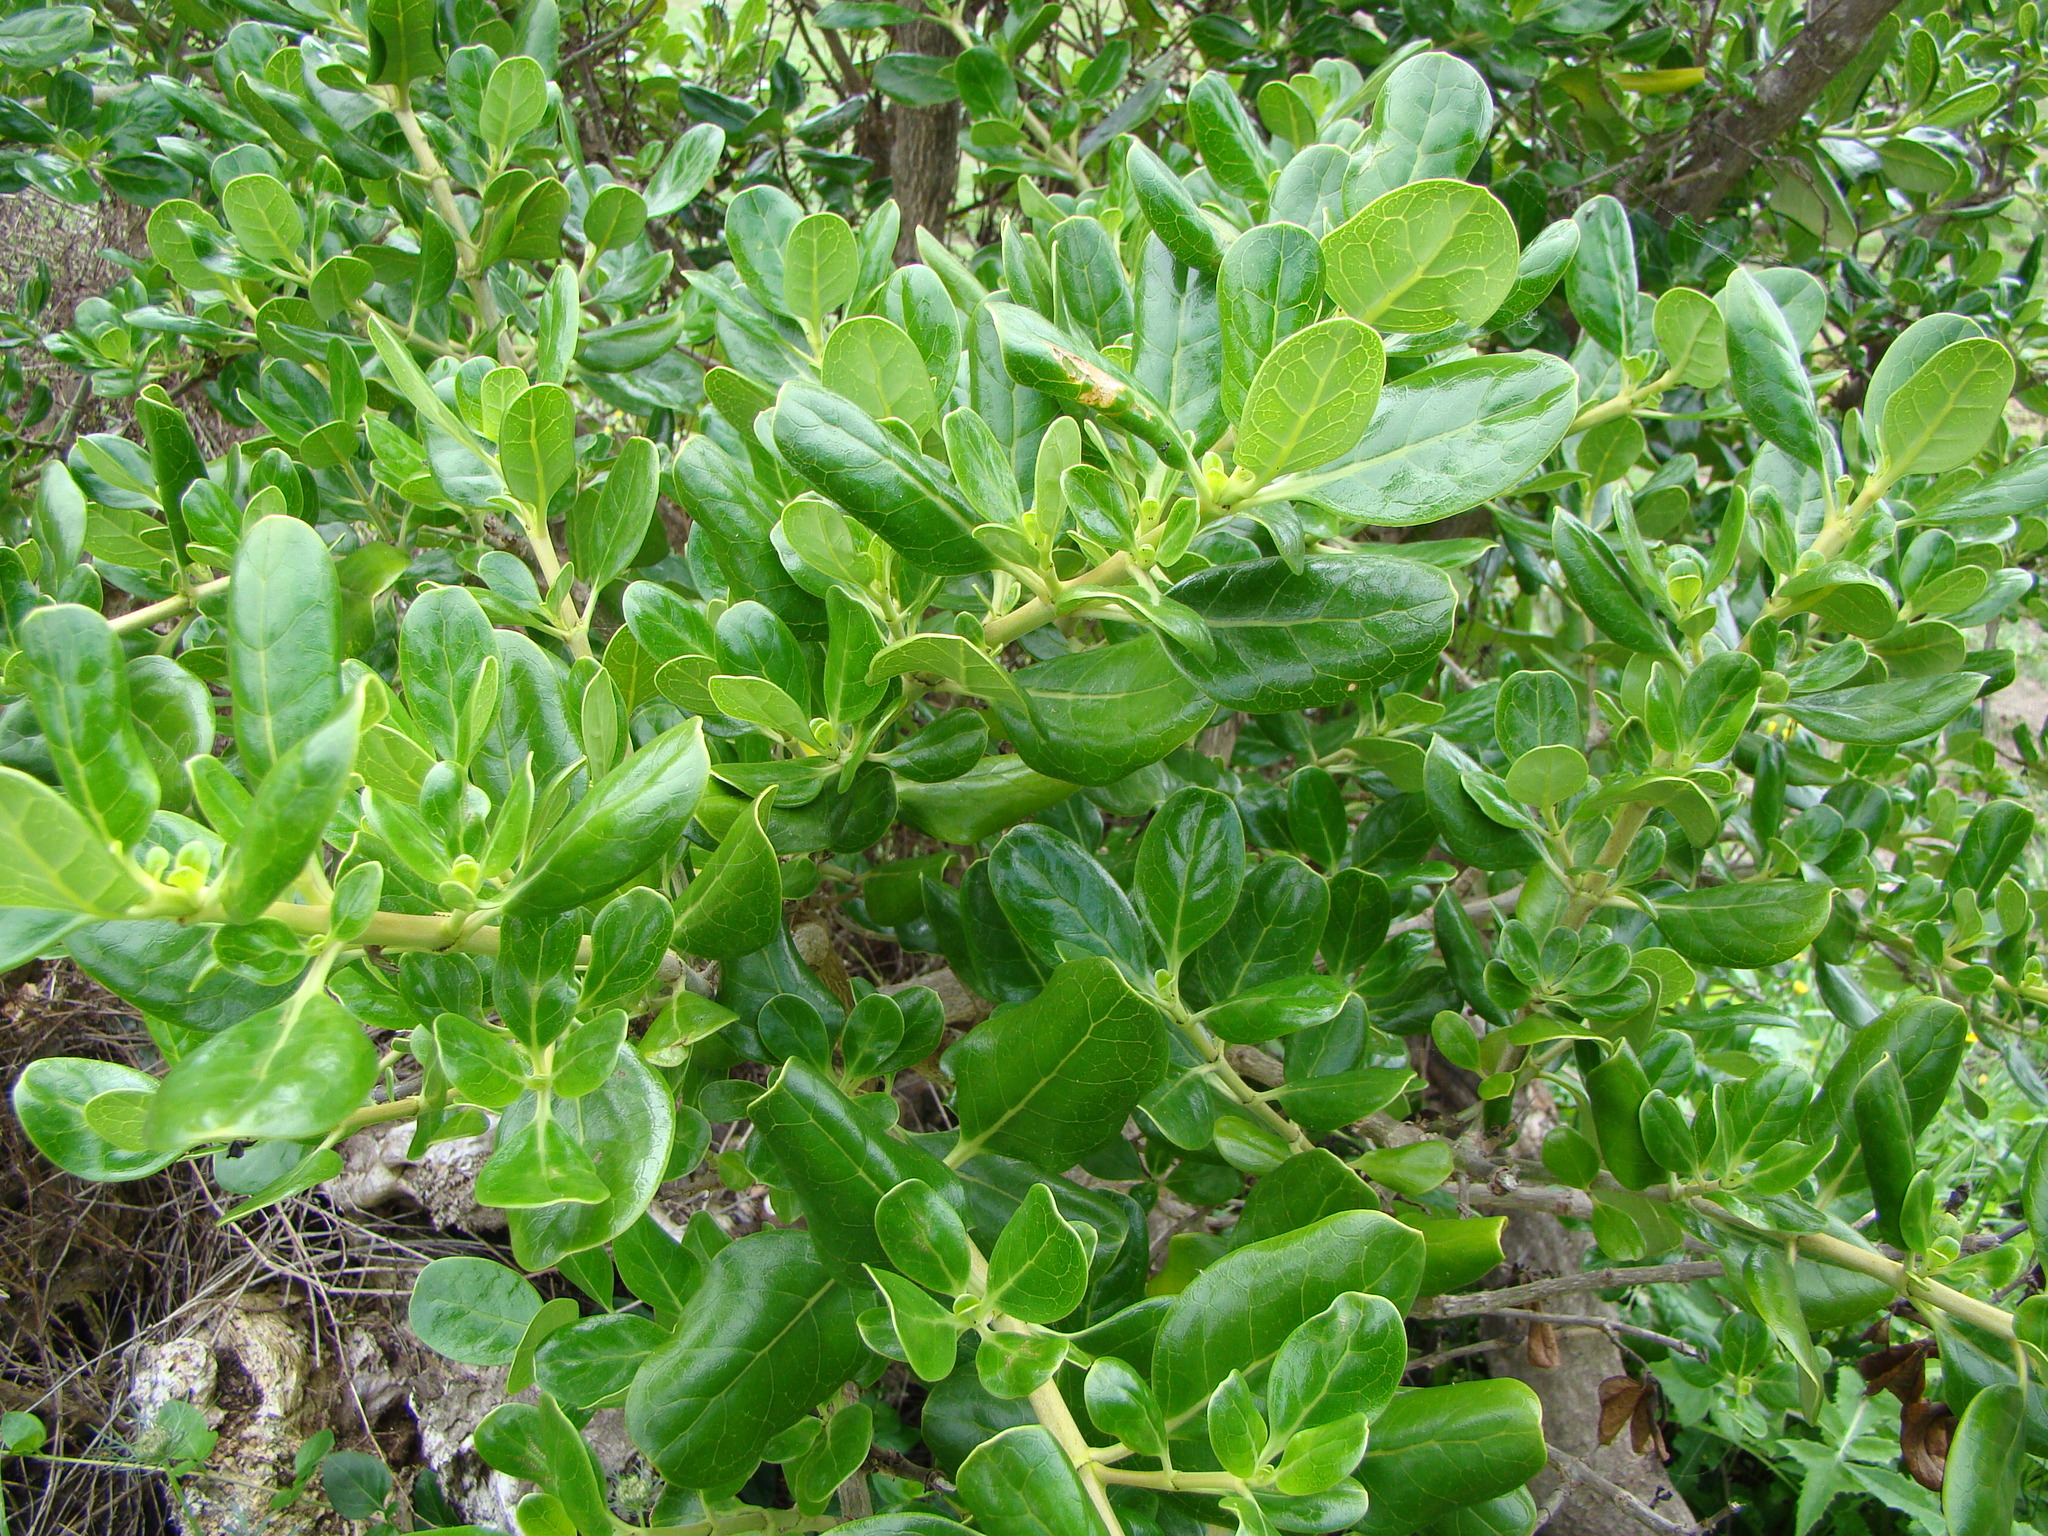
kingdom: Plantae
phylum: Tracheophyta
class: Magnoliopsida
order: Gentianales
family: Rubiaceae
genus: Coprosma
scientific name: Coprosma repens
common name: Tree bedstraw
